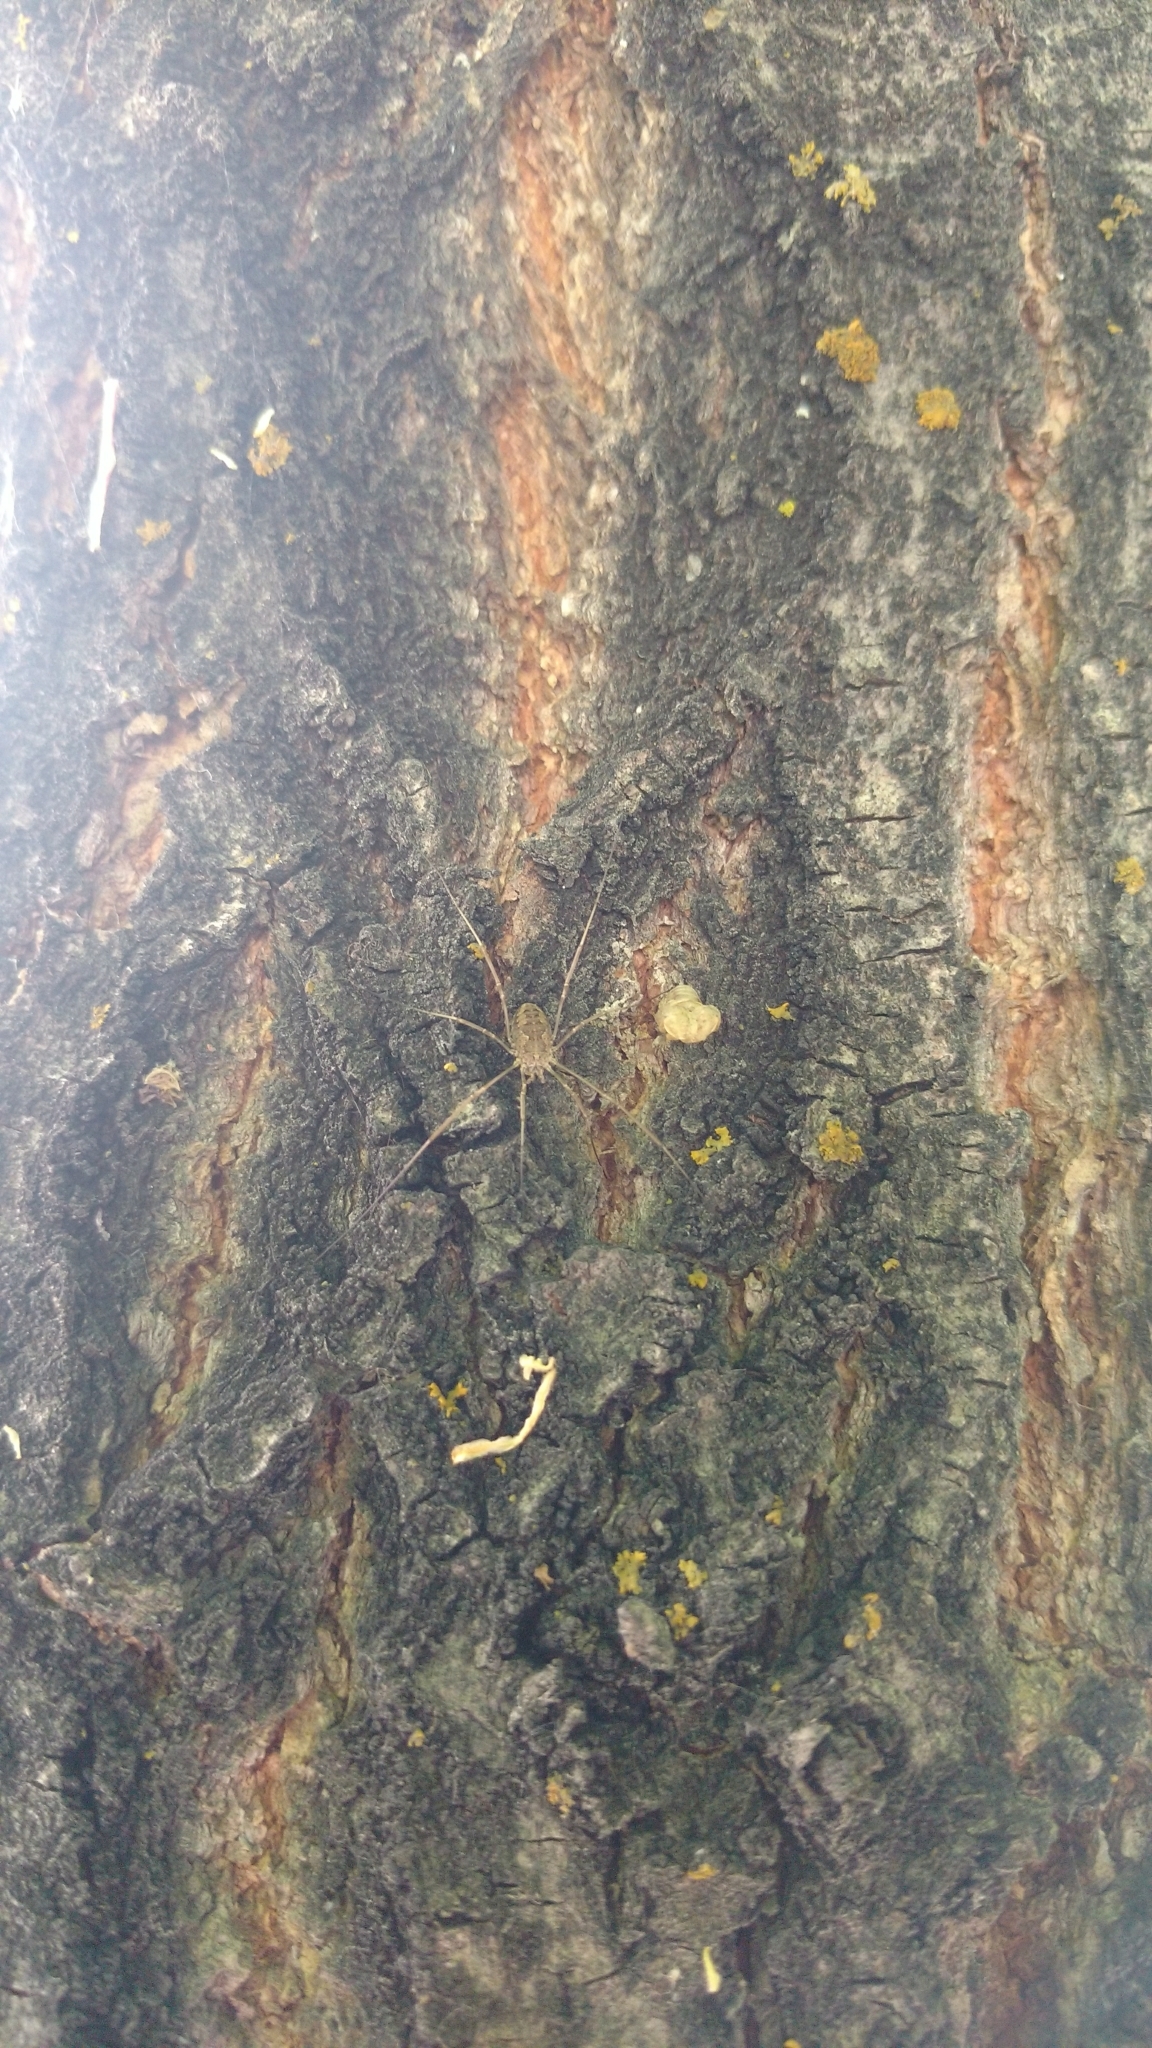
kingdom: Animalia
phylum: Arthropoda
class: Arachnida
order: Opiliones
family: Phalangiidae
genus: Phalangium
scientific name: Phalangium opilio
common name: Daddy longleg
